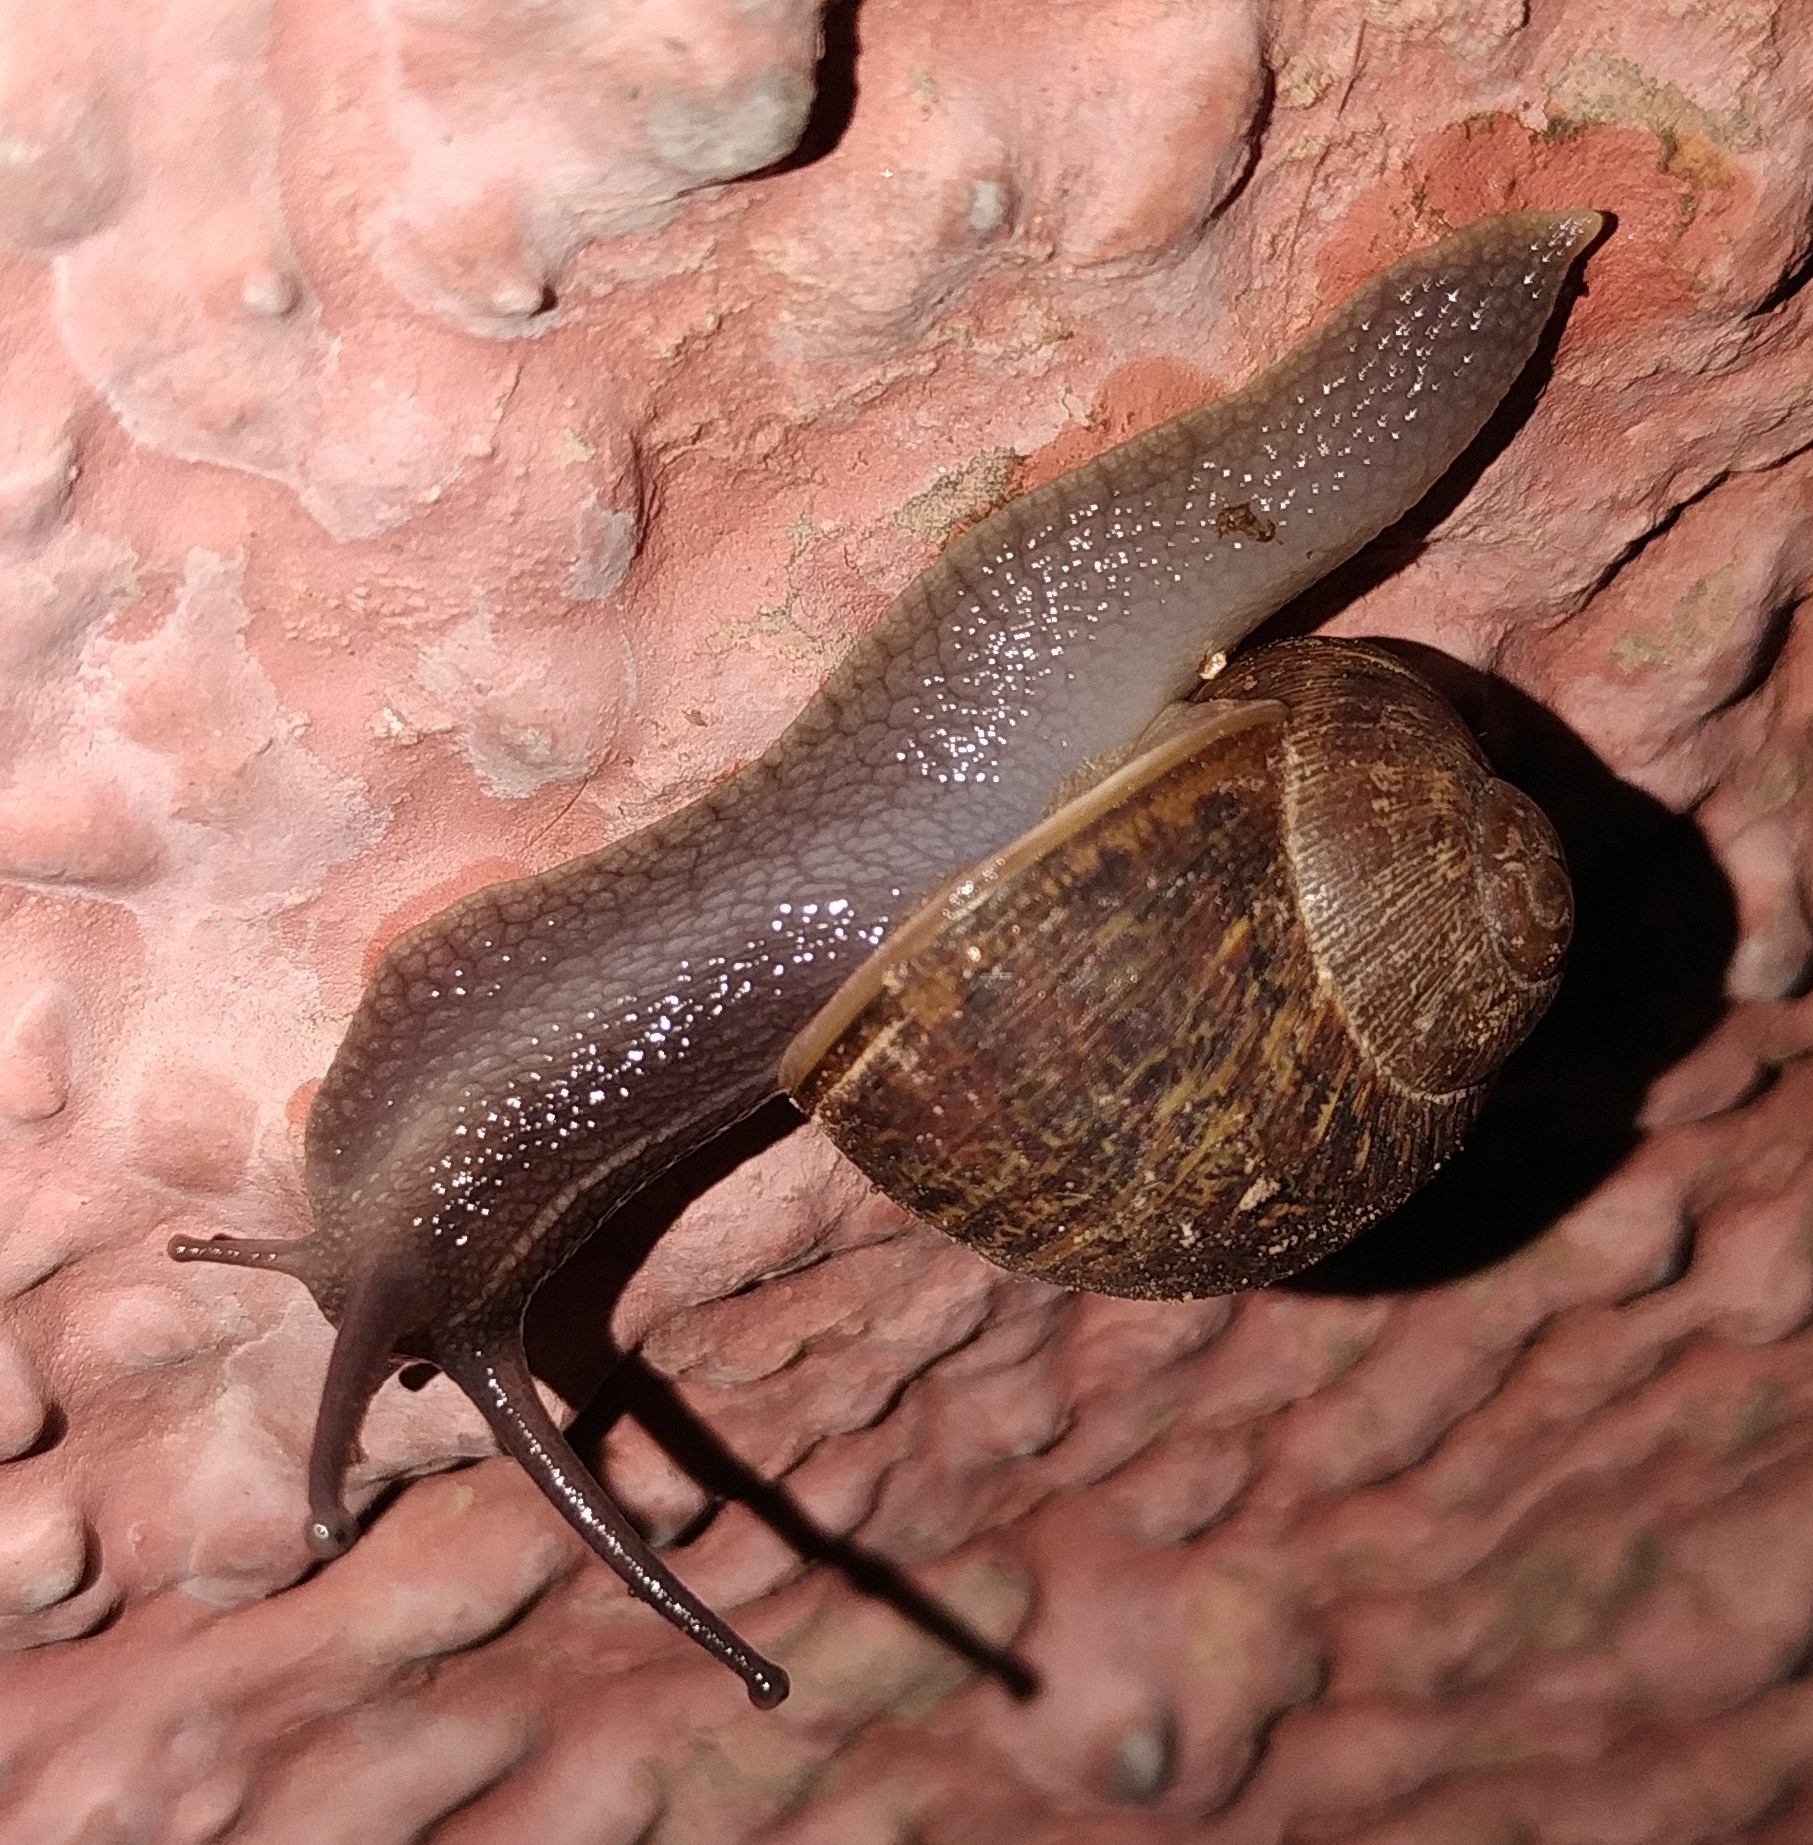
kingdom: Animalia
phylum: Mollusca
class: Gastropoda
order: Stylommatophora
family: Helicidae
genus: Cornu
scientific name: Cornu aspersum
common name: Brown garden snail
